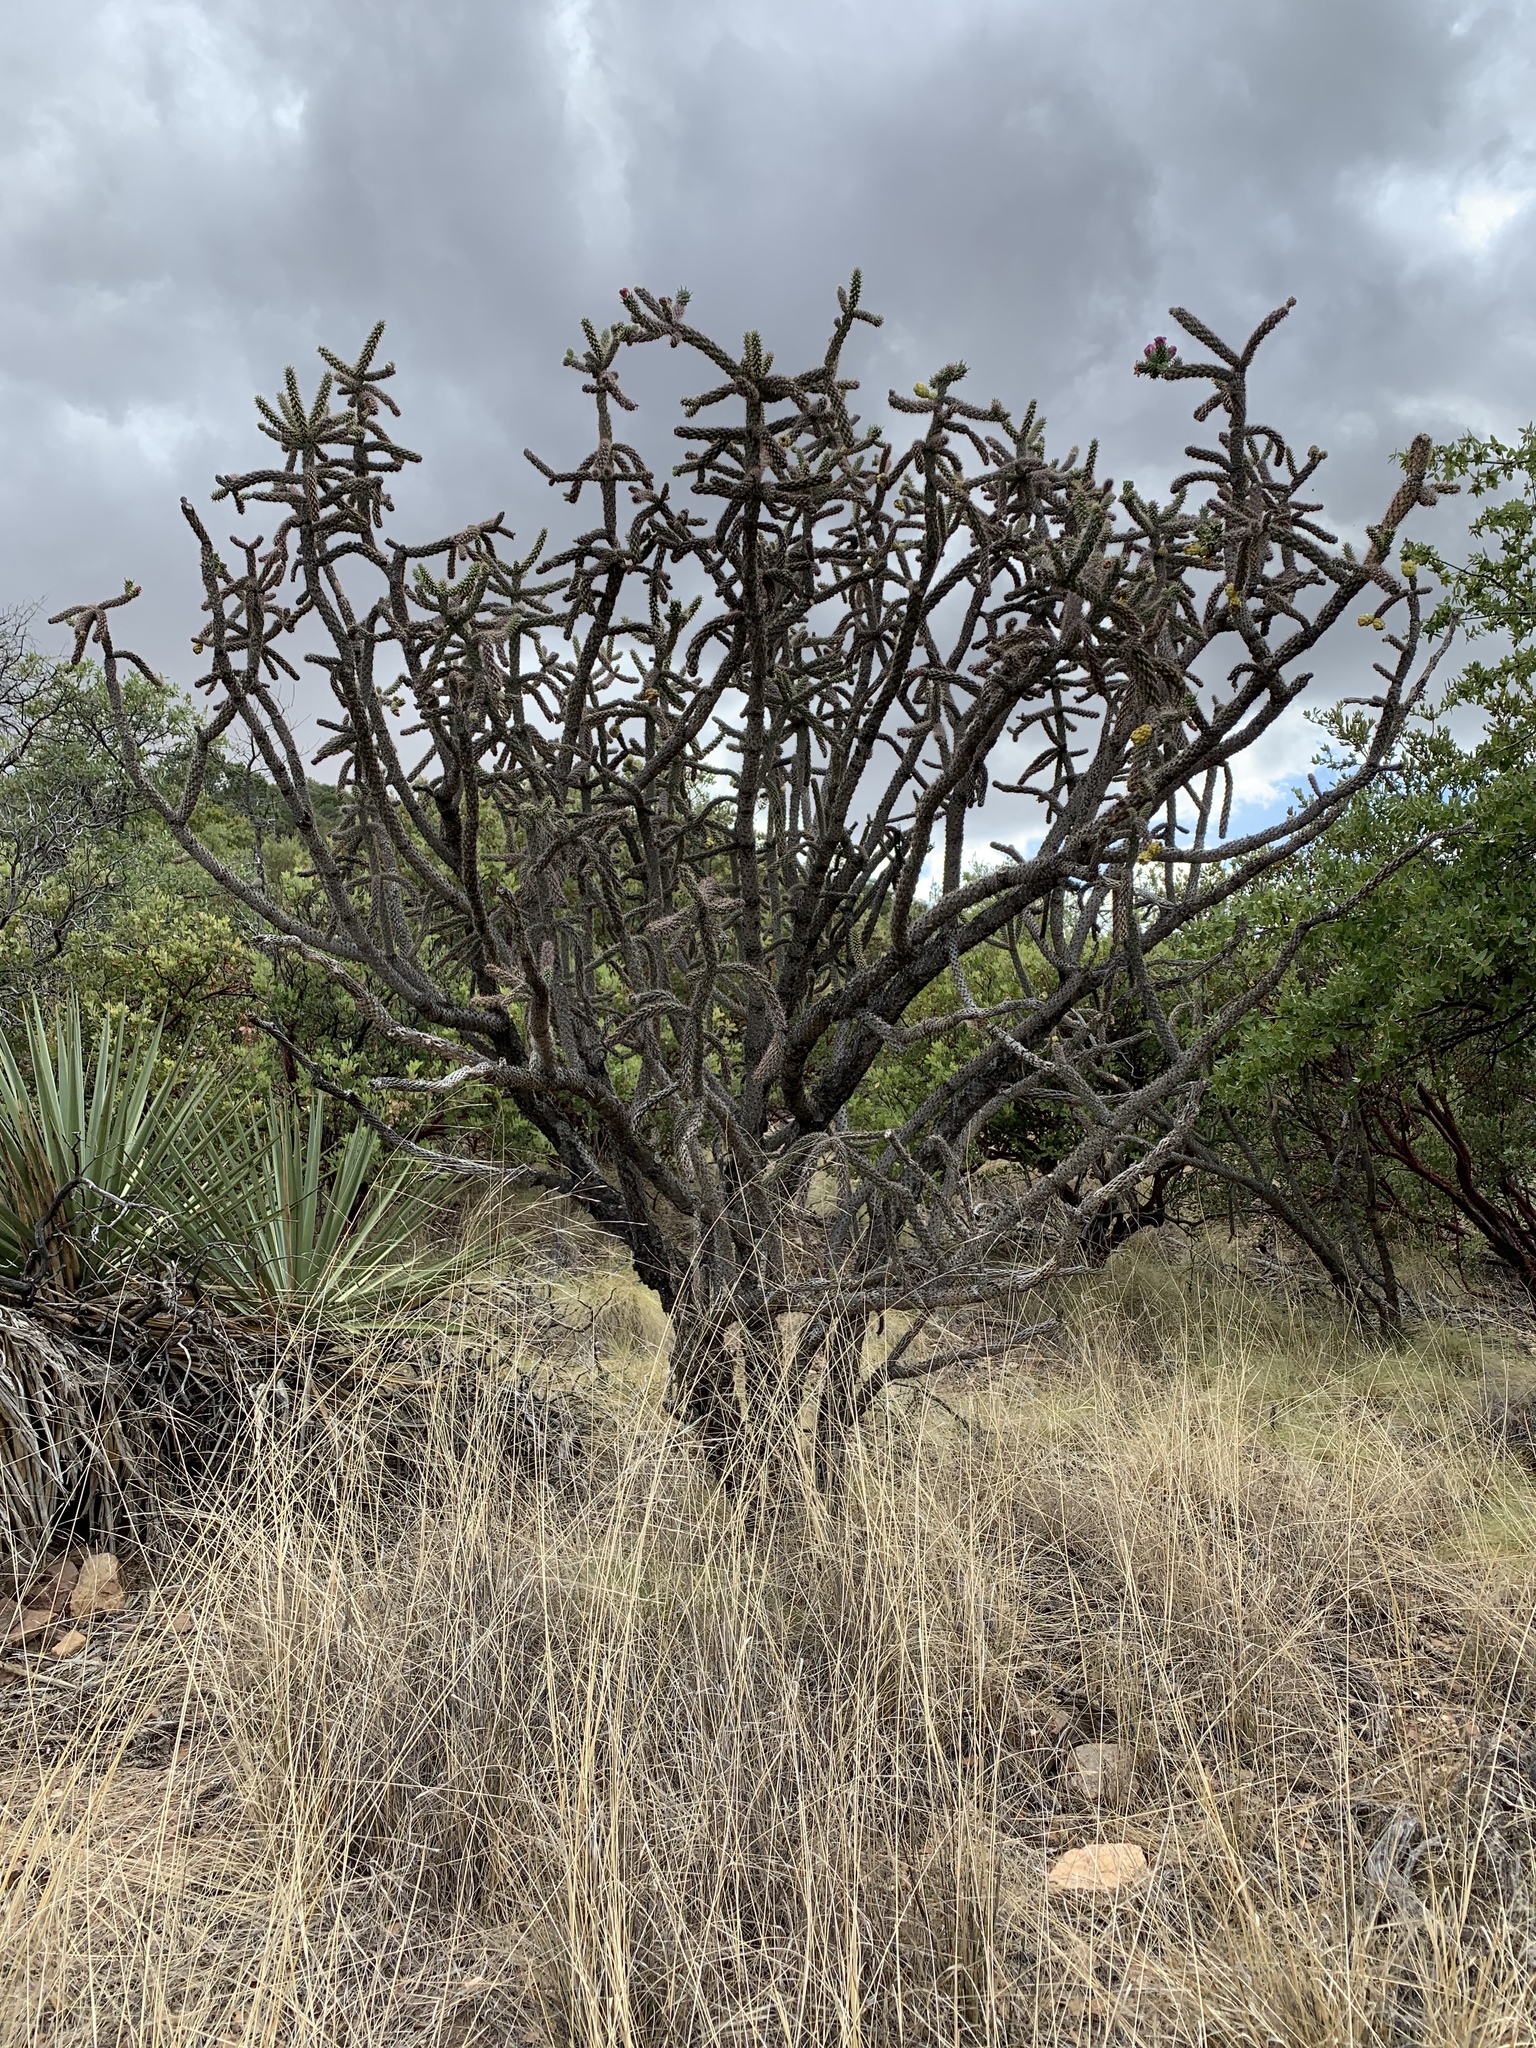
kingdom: Plantae
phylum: Tracheophyta
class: Magnoliopsida
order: Caryophyllales
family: Cactaceae
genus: Cylindropuntia
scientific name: Cylindropuntia imbricata
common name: Candelabrum cactus
